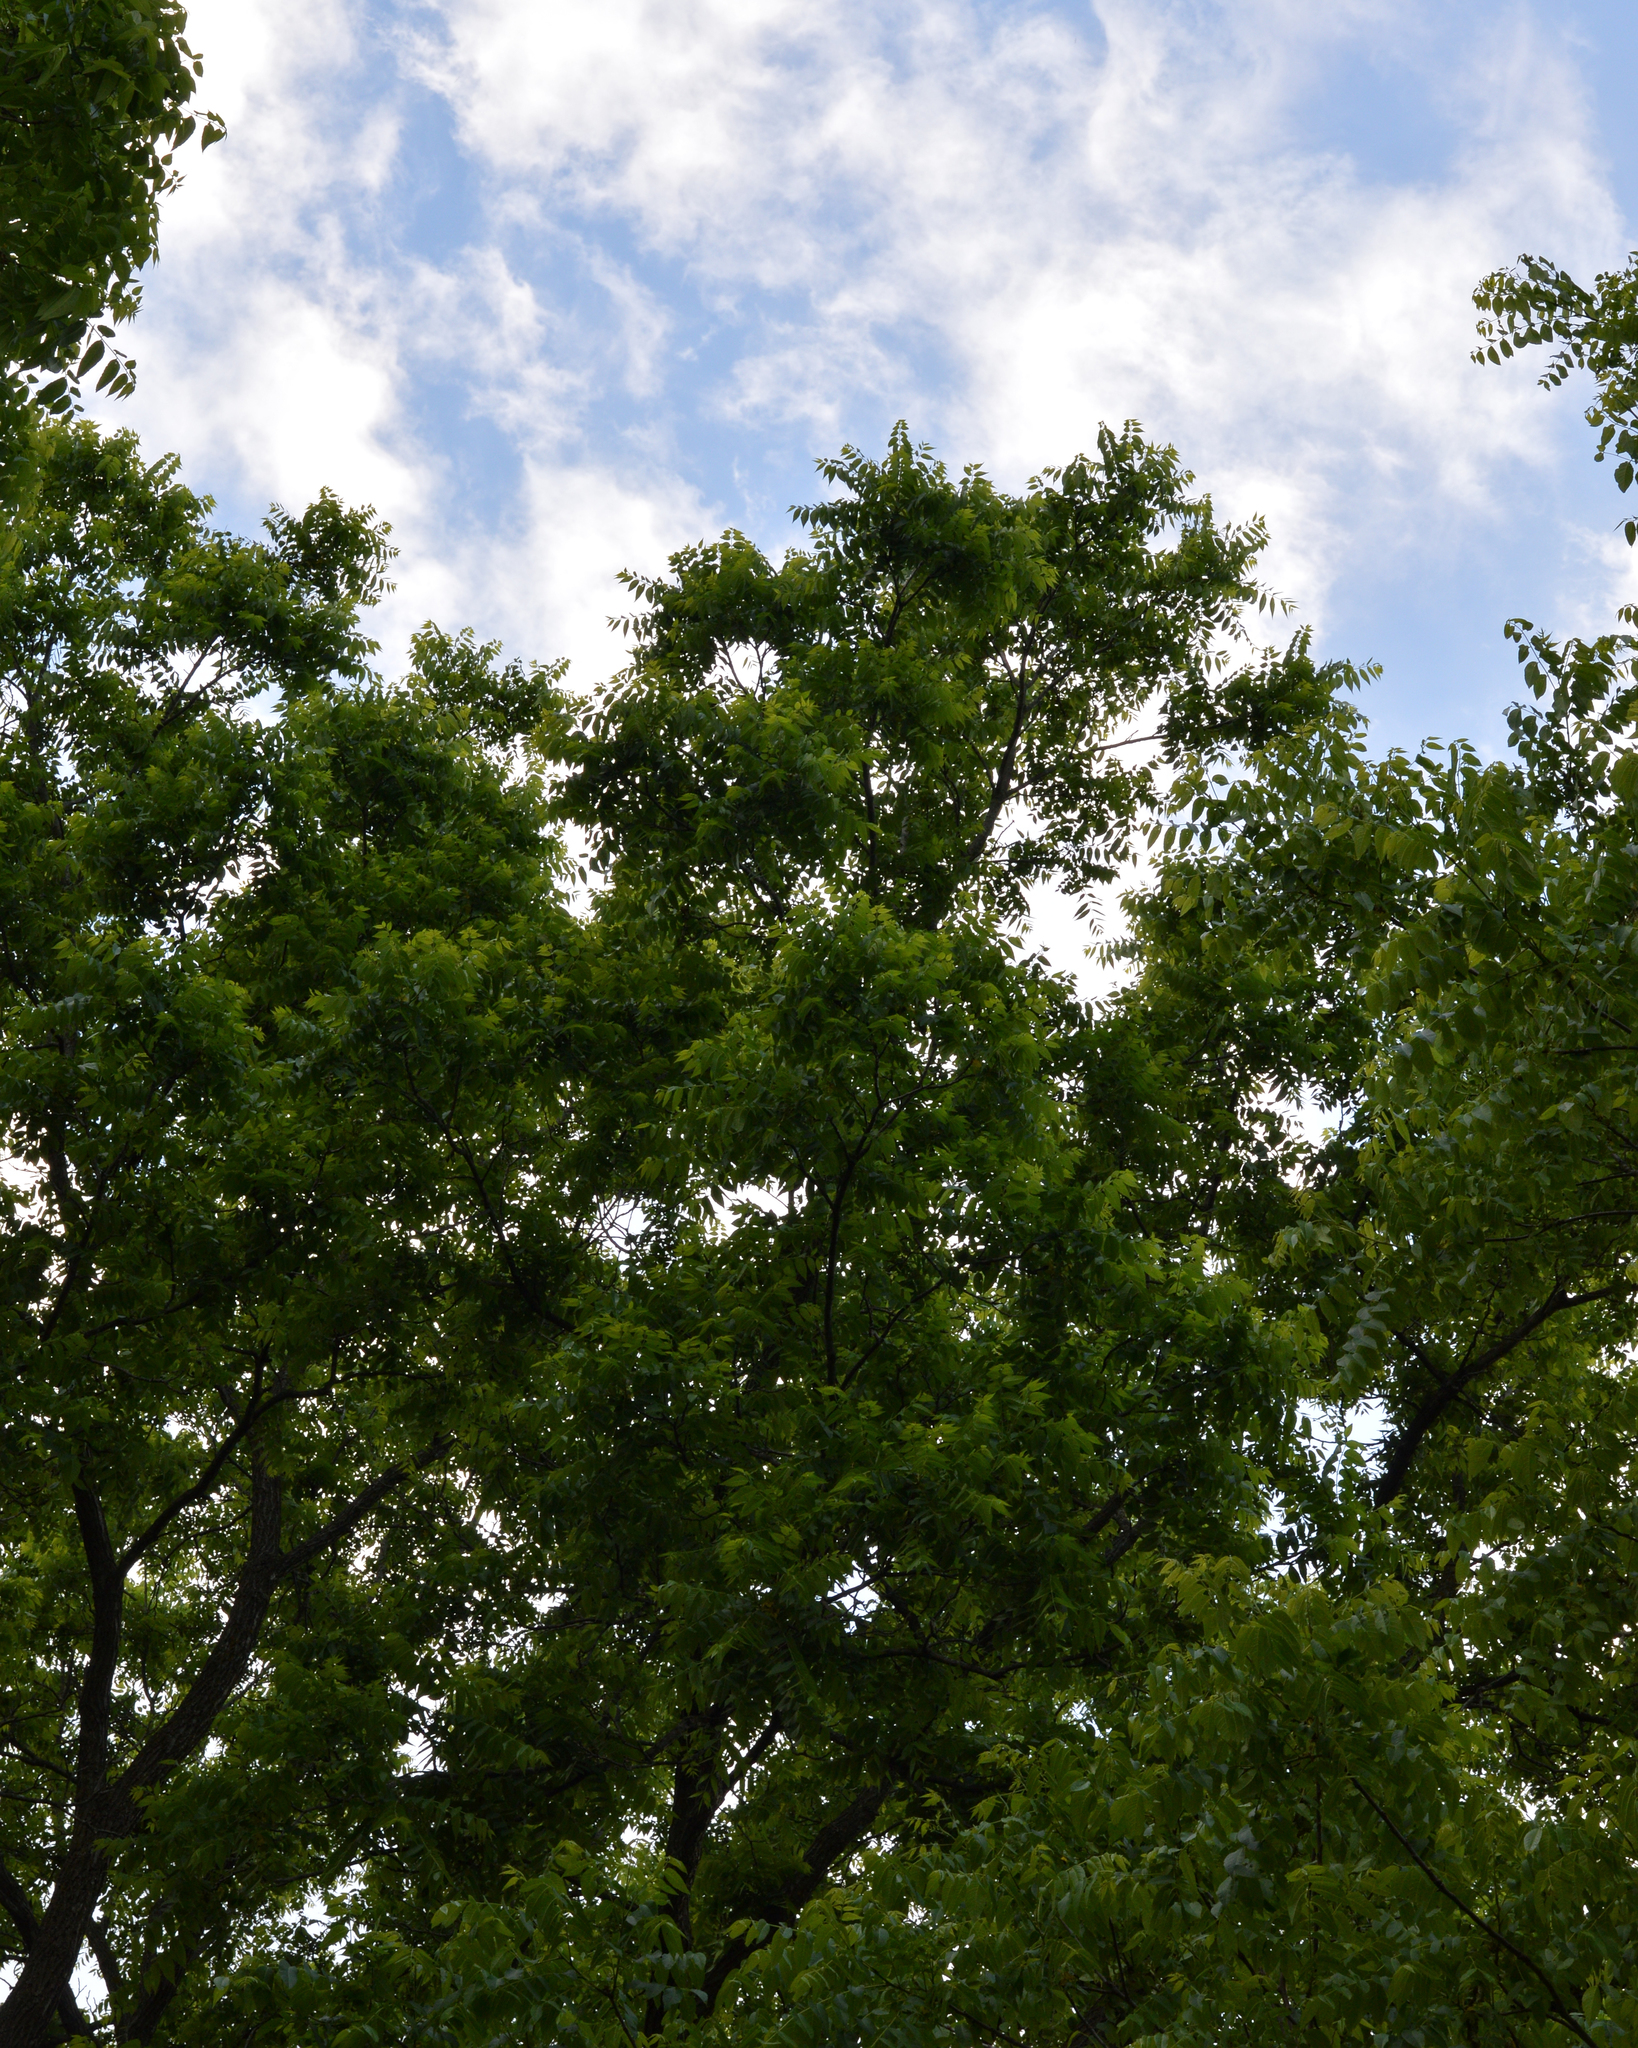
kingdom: Plantae
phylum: Tracheophyta
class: Magnoliopsida
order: Fagales
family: Juglandaceae
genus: Juglans
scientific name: Juglans nigra
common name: Black walnut
